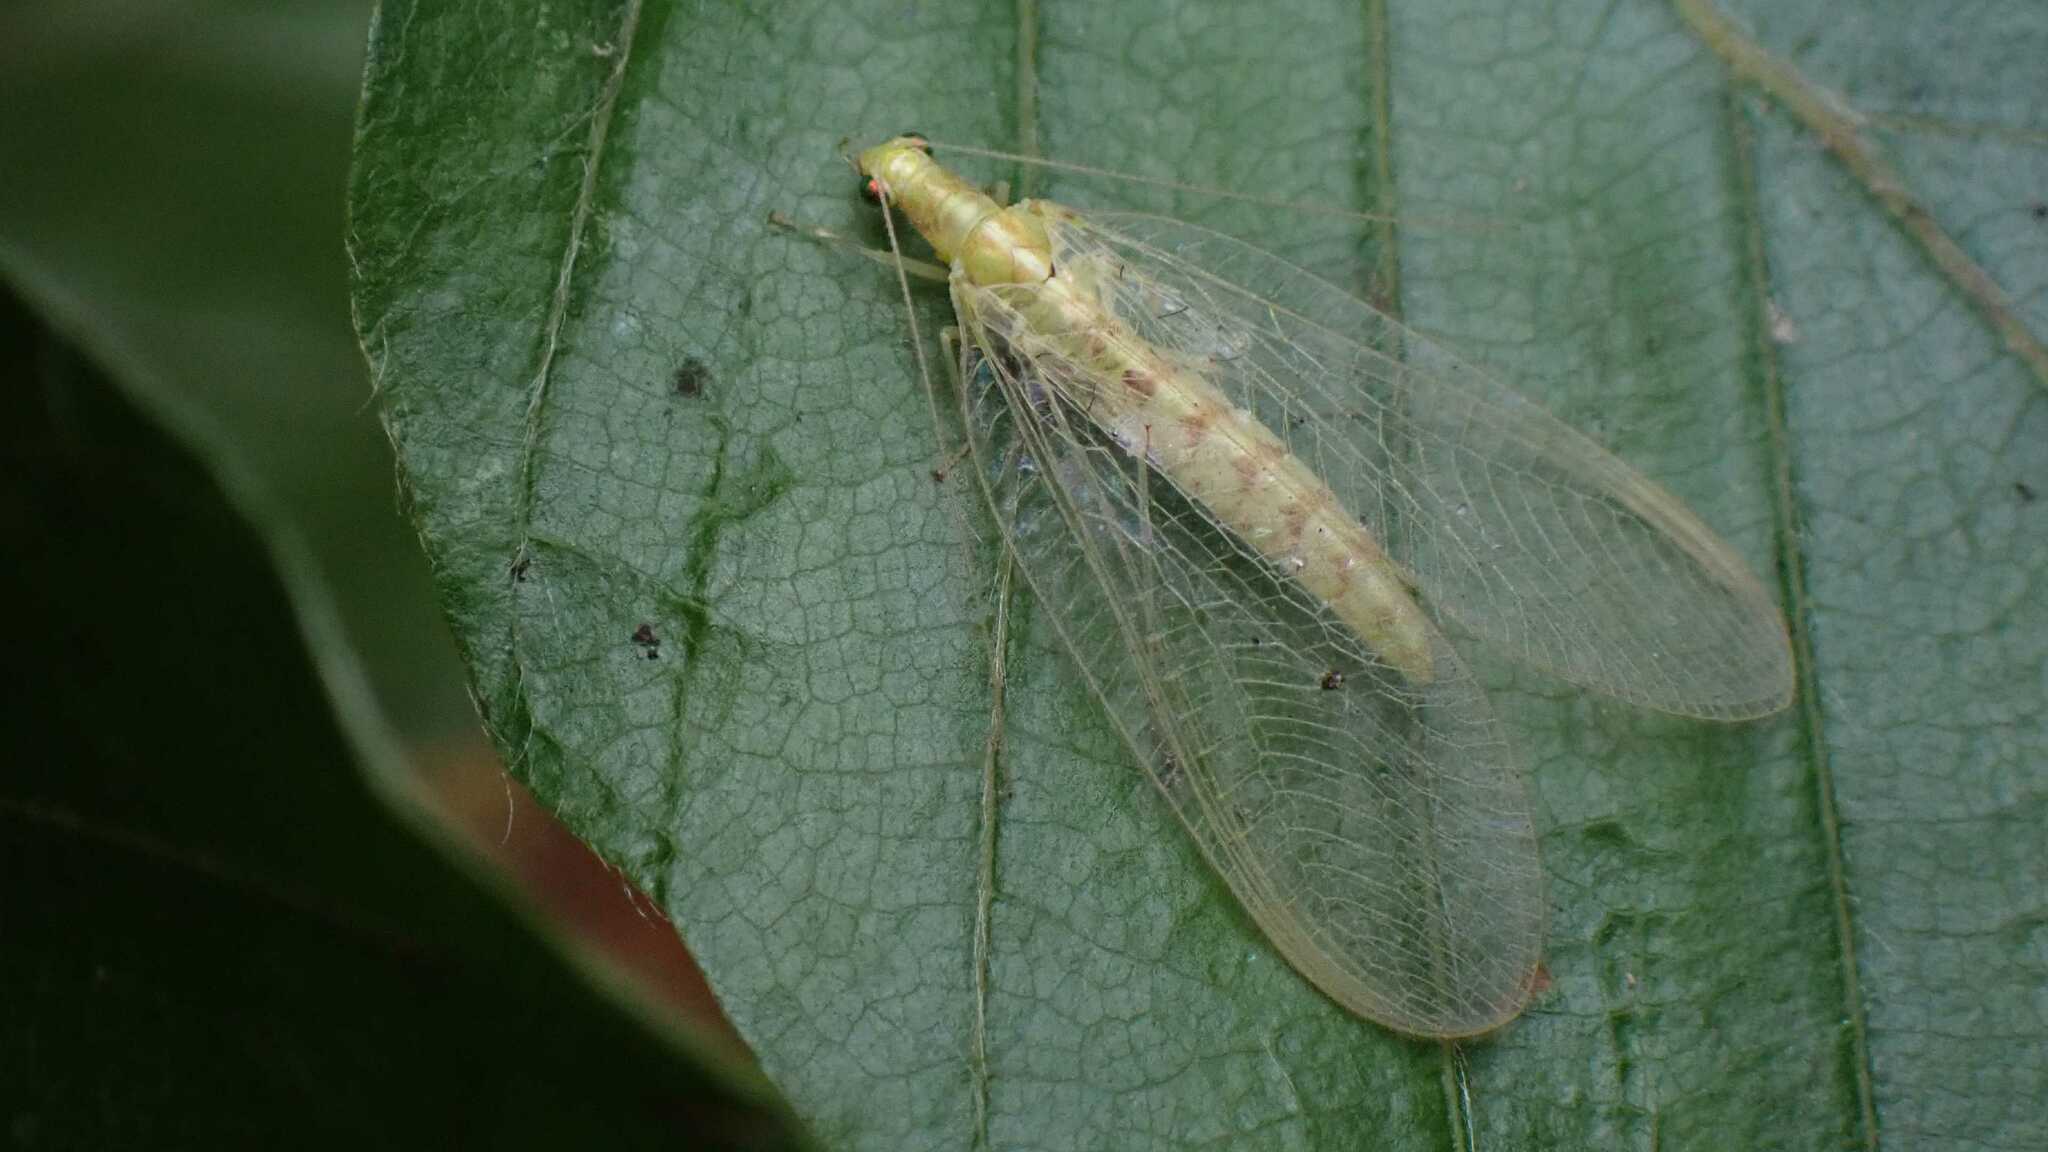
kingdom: Animalia
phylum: Arthropoda
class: Insecta
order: Neuroptera
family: Chrysopidae
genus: Chrysoperla
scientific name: Chrysoperla
